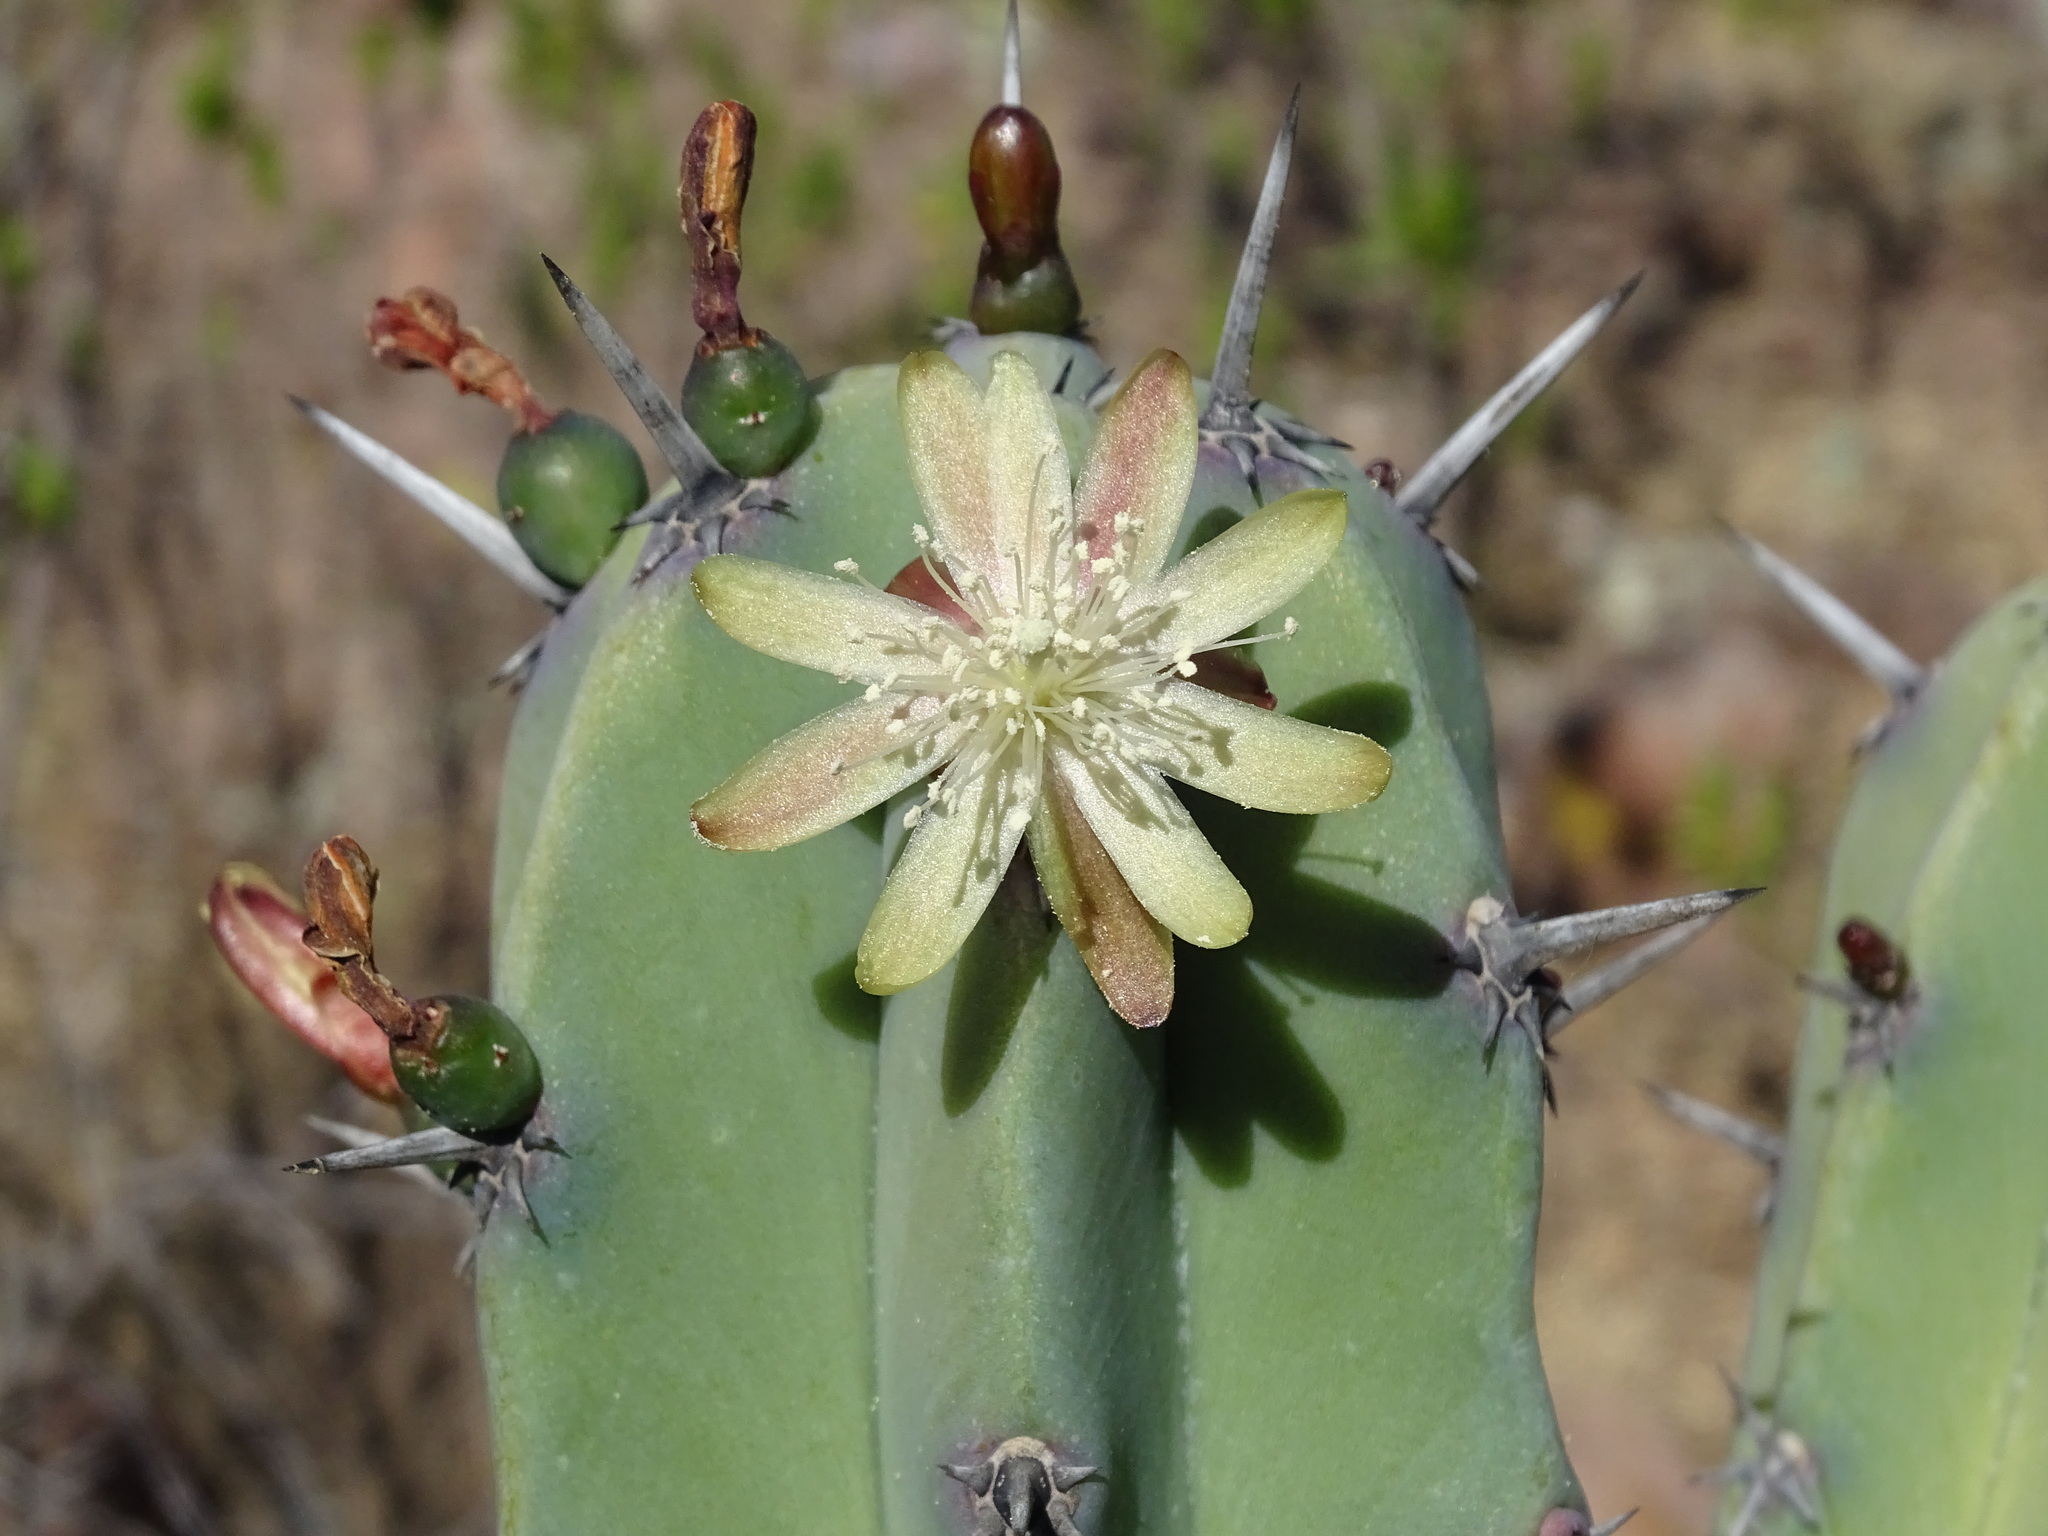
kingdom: Plantae
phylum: Tracheophyta
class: Magnoliopsida
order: Caryophyllales
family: Cactaceae
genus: Myrtillocactus
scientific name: Myrtillocactus geometrizans
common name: Bilberry cactus
